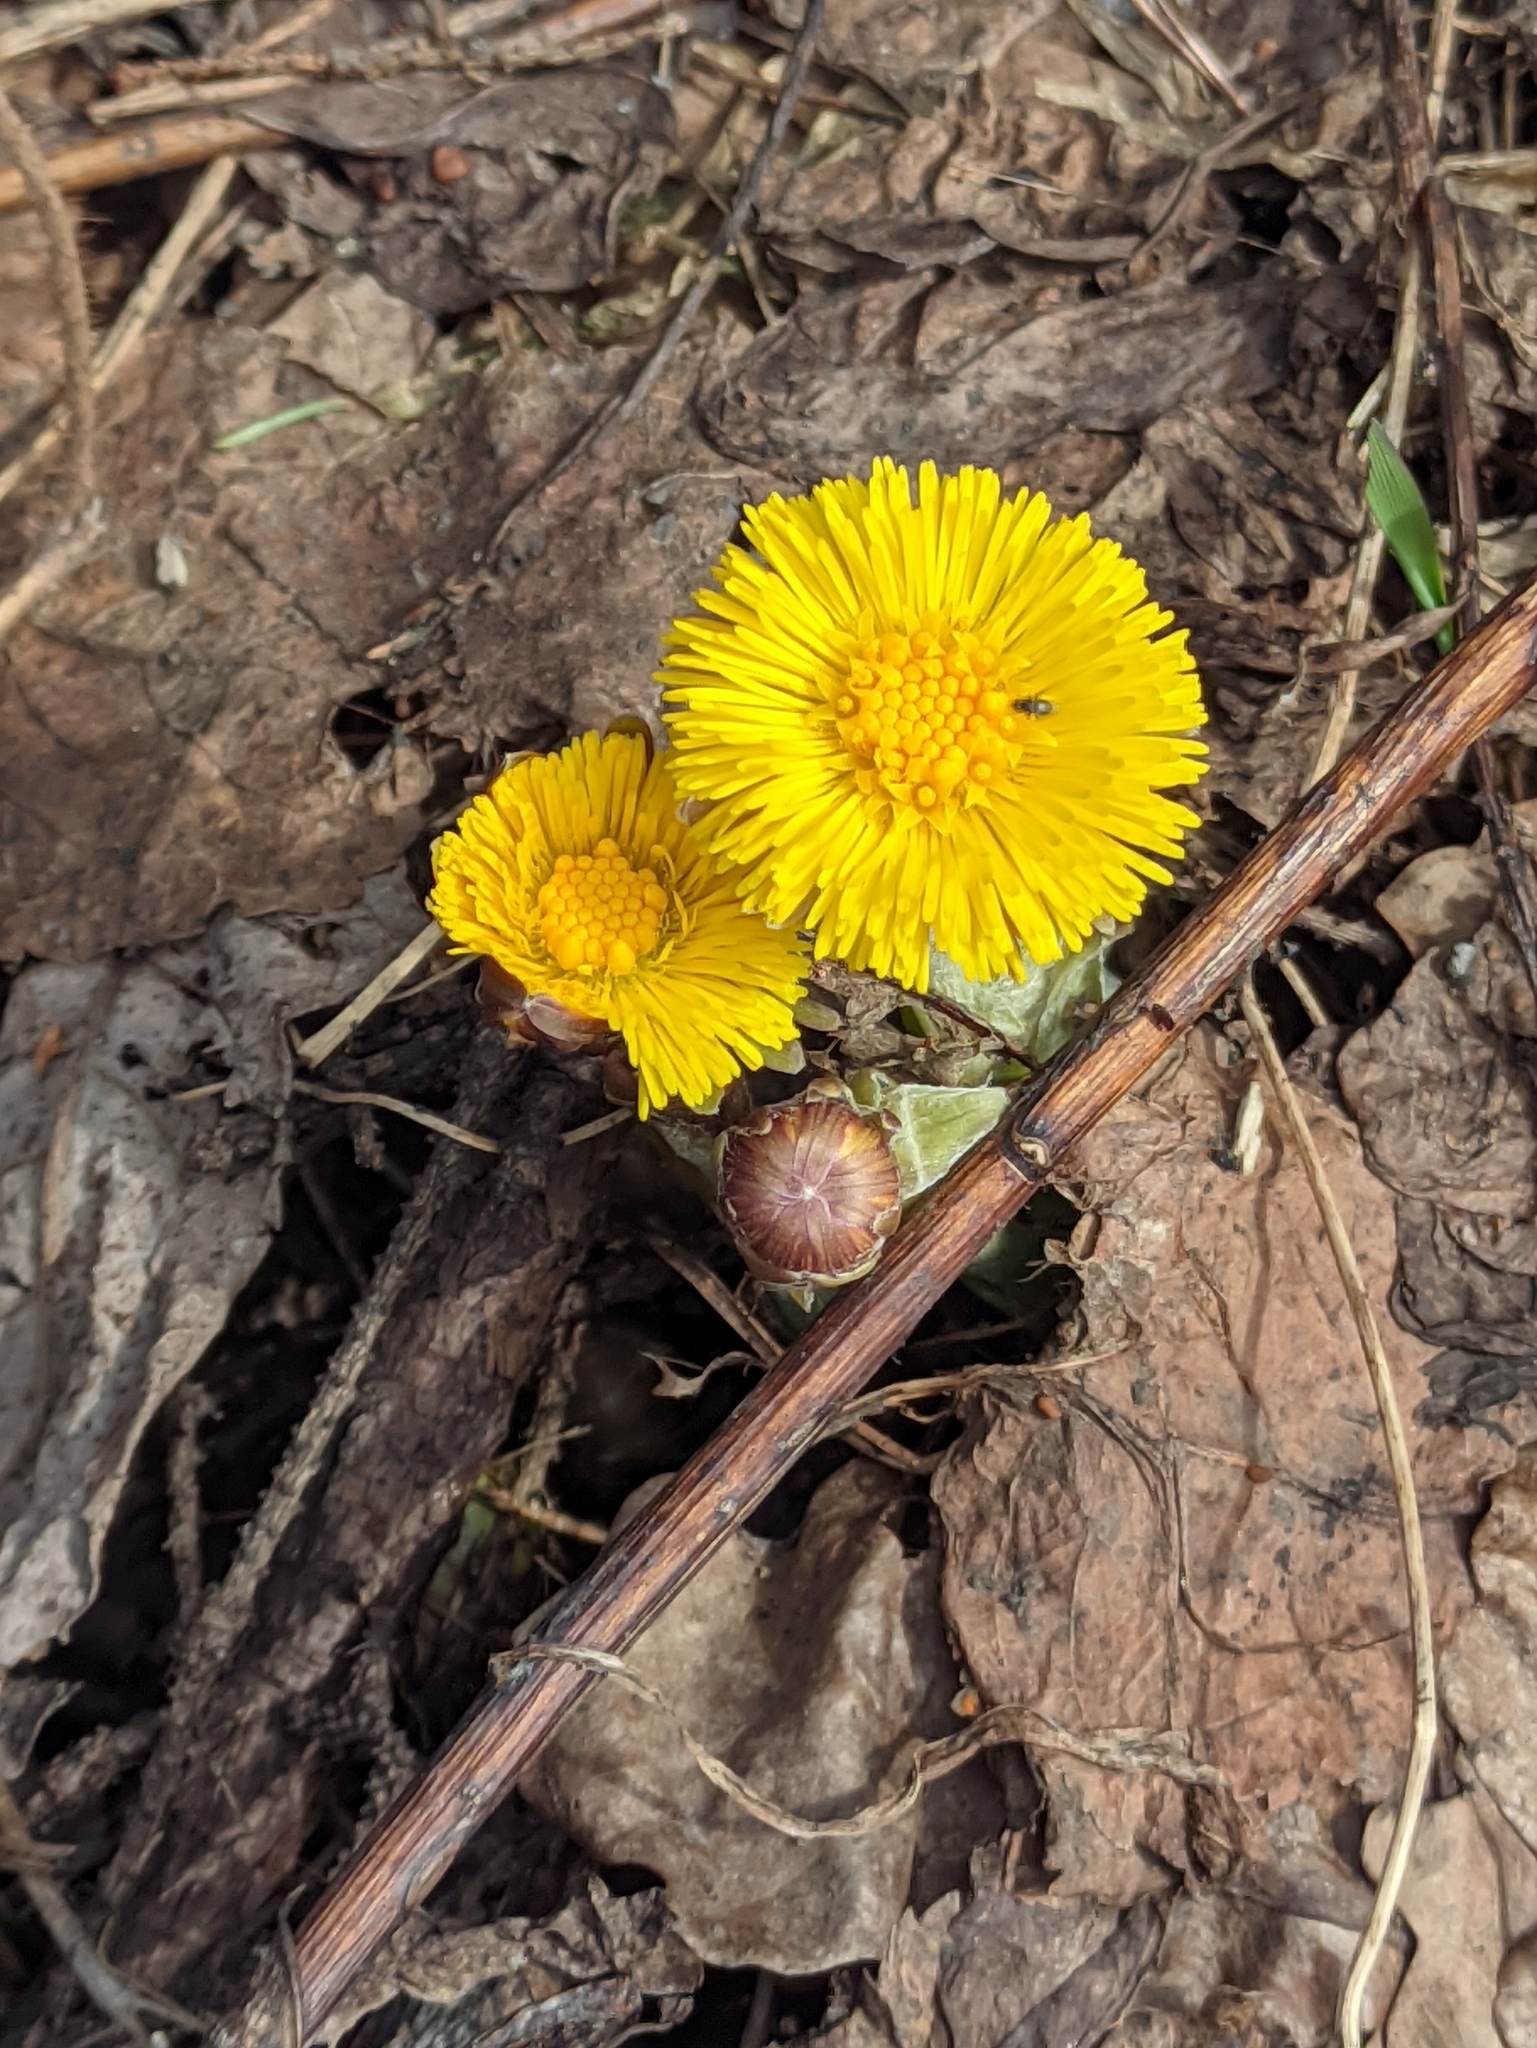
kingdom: Plantae
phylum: Tracheophyta
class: Magnoliopsida
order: Asterales
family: Asteraceae
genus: Tussilago
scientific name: Tussilago farfara
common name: Coltsfoot
